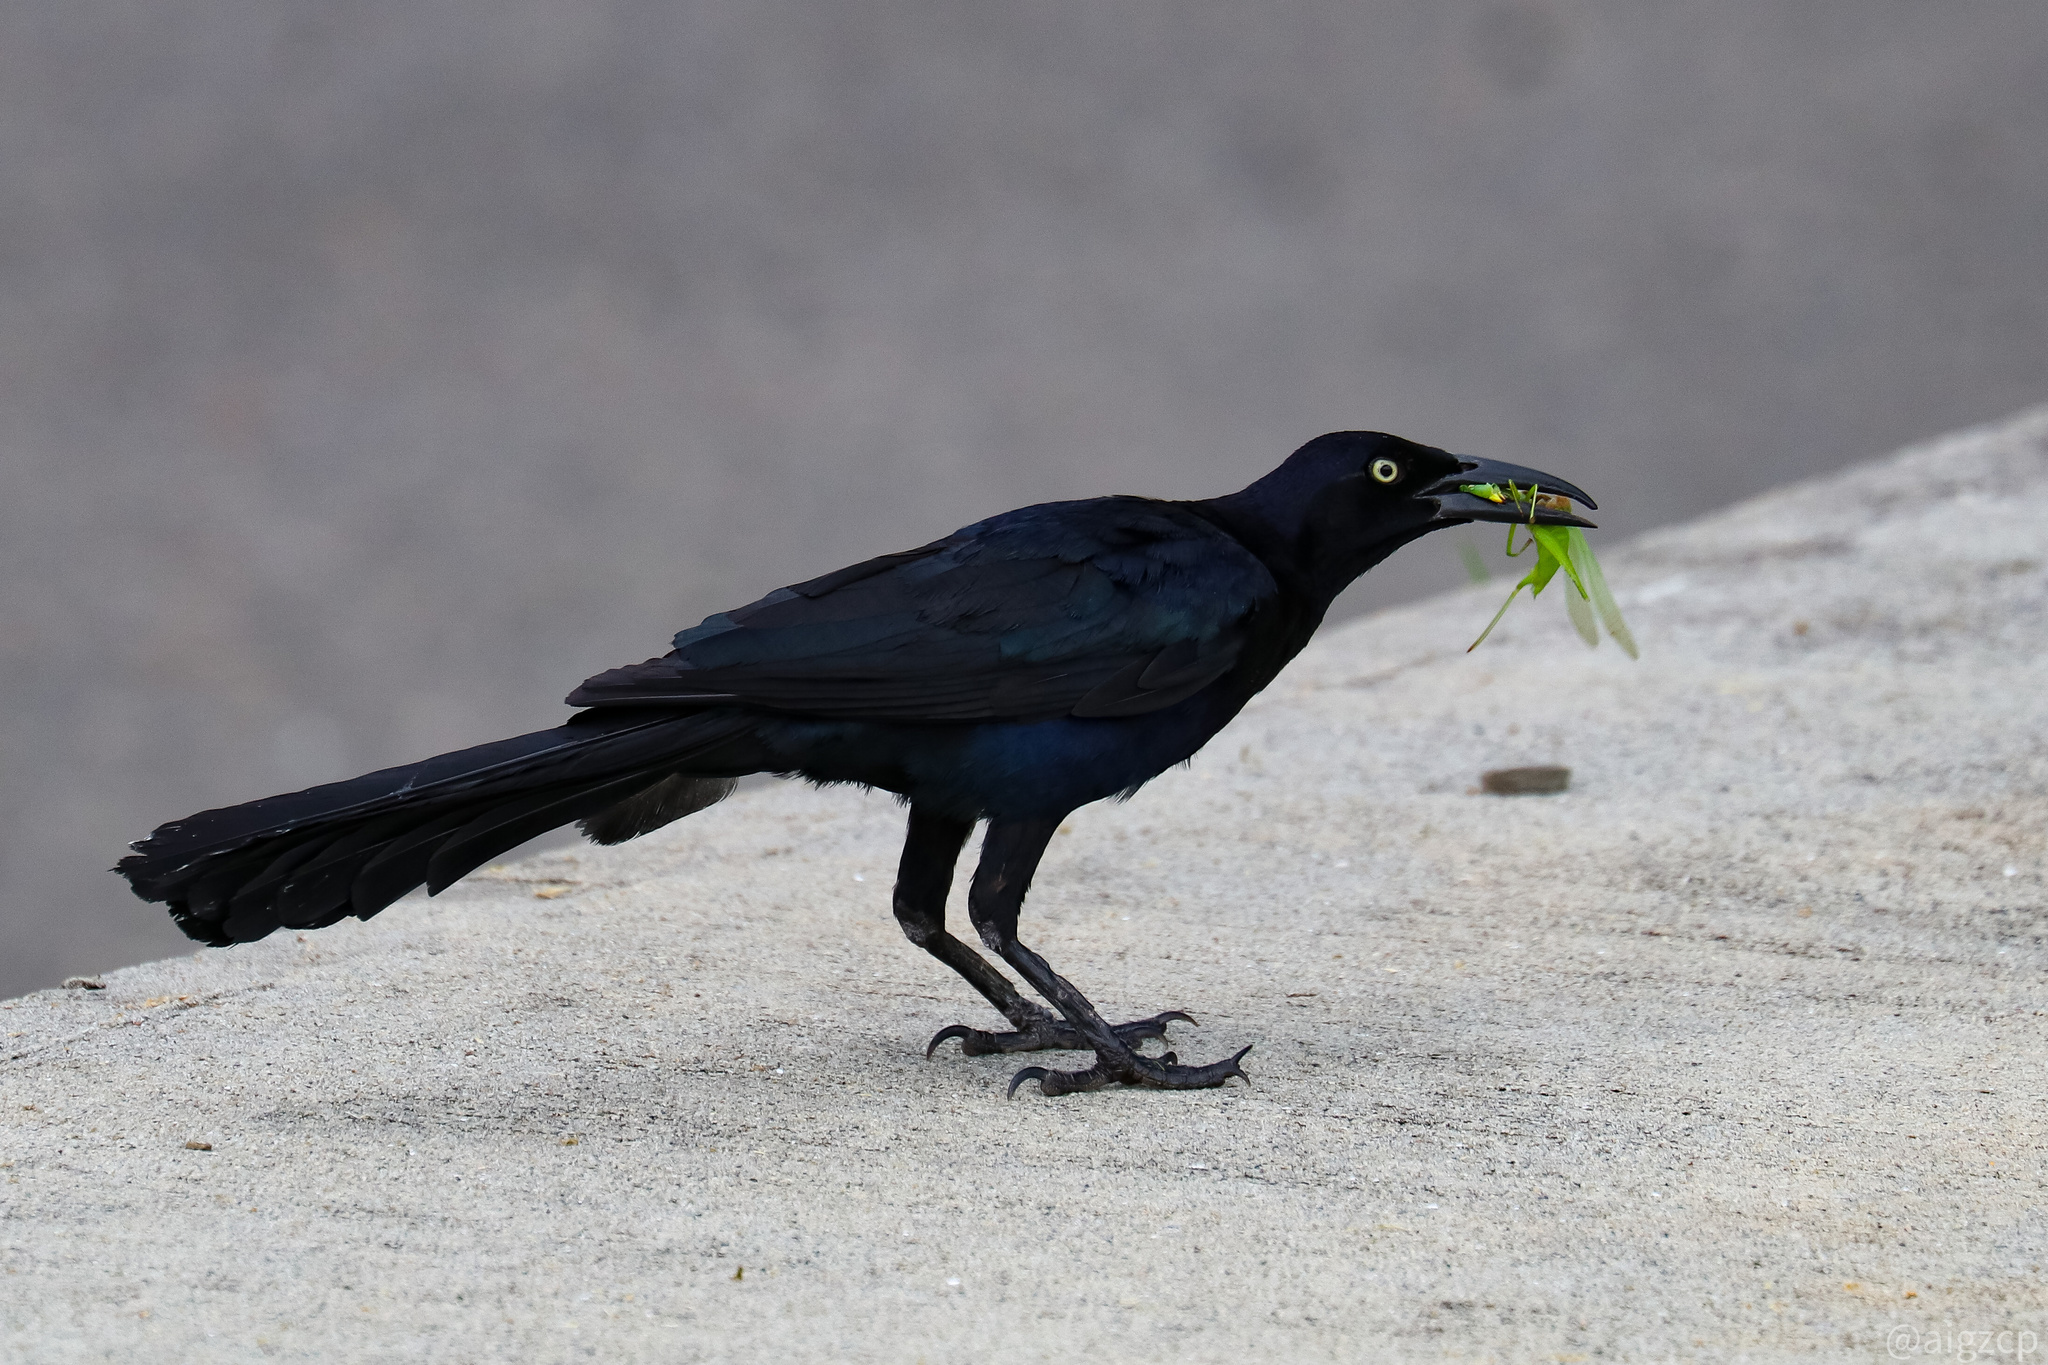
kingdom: Animalia
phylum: Chordata
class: Aves
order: Passeriformes
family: Icteridae
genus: Quiscalus
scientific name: Quiscalus mexicanus
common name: Great-tailed grackle
